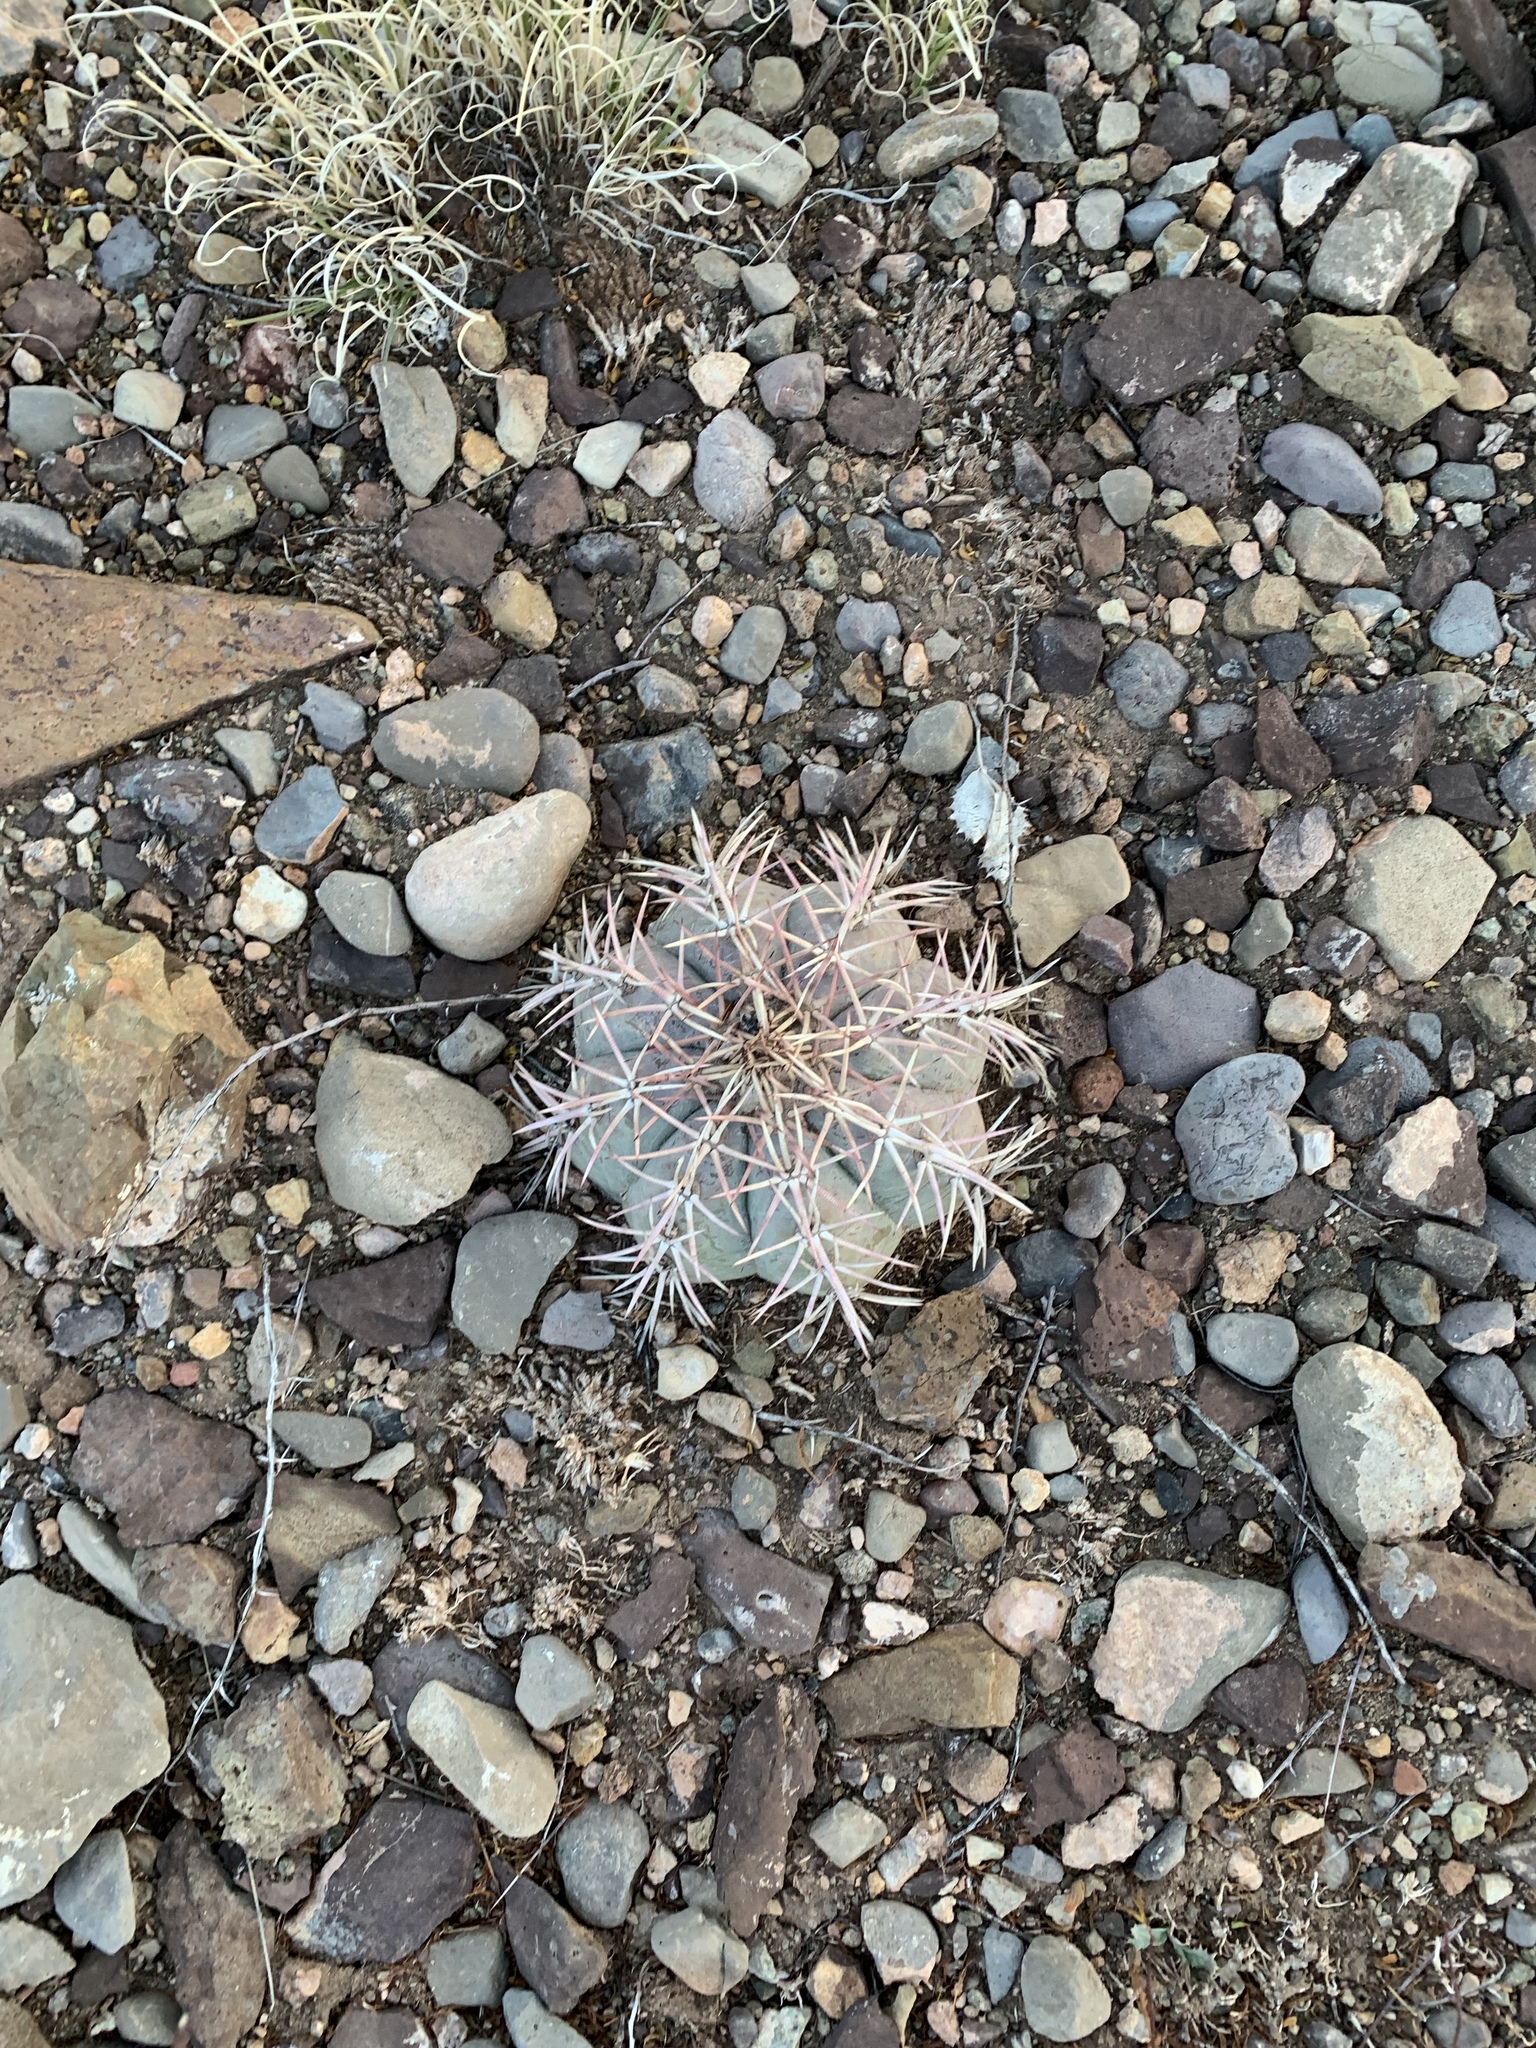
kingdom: Plantae
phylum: Tracheophyta
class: Magnoliopsida
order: Caryophyllales
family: Cactaceae
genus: Echinocactus
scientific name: Echinocactus horizonthalonius
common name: Devilshead
